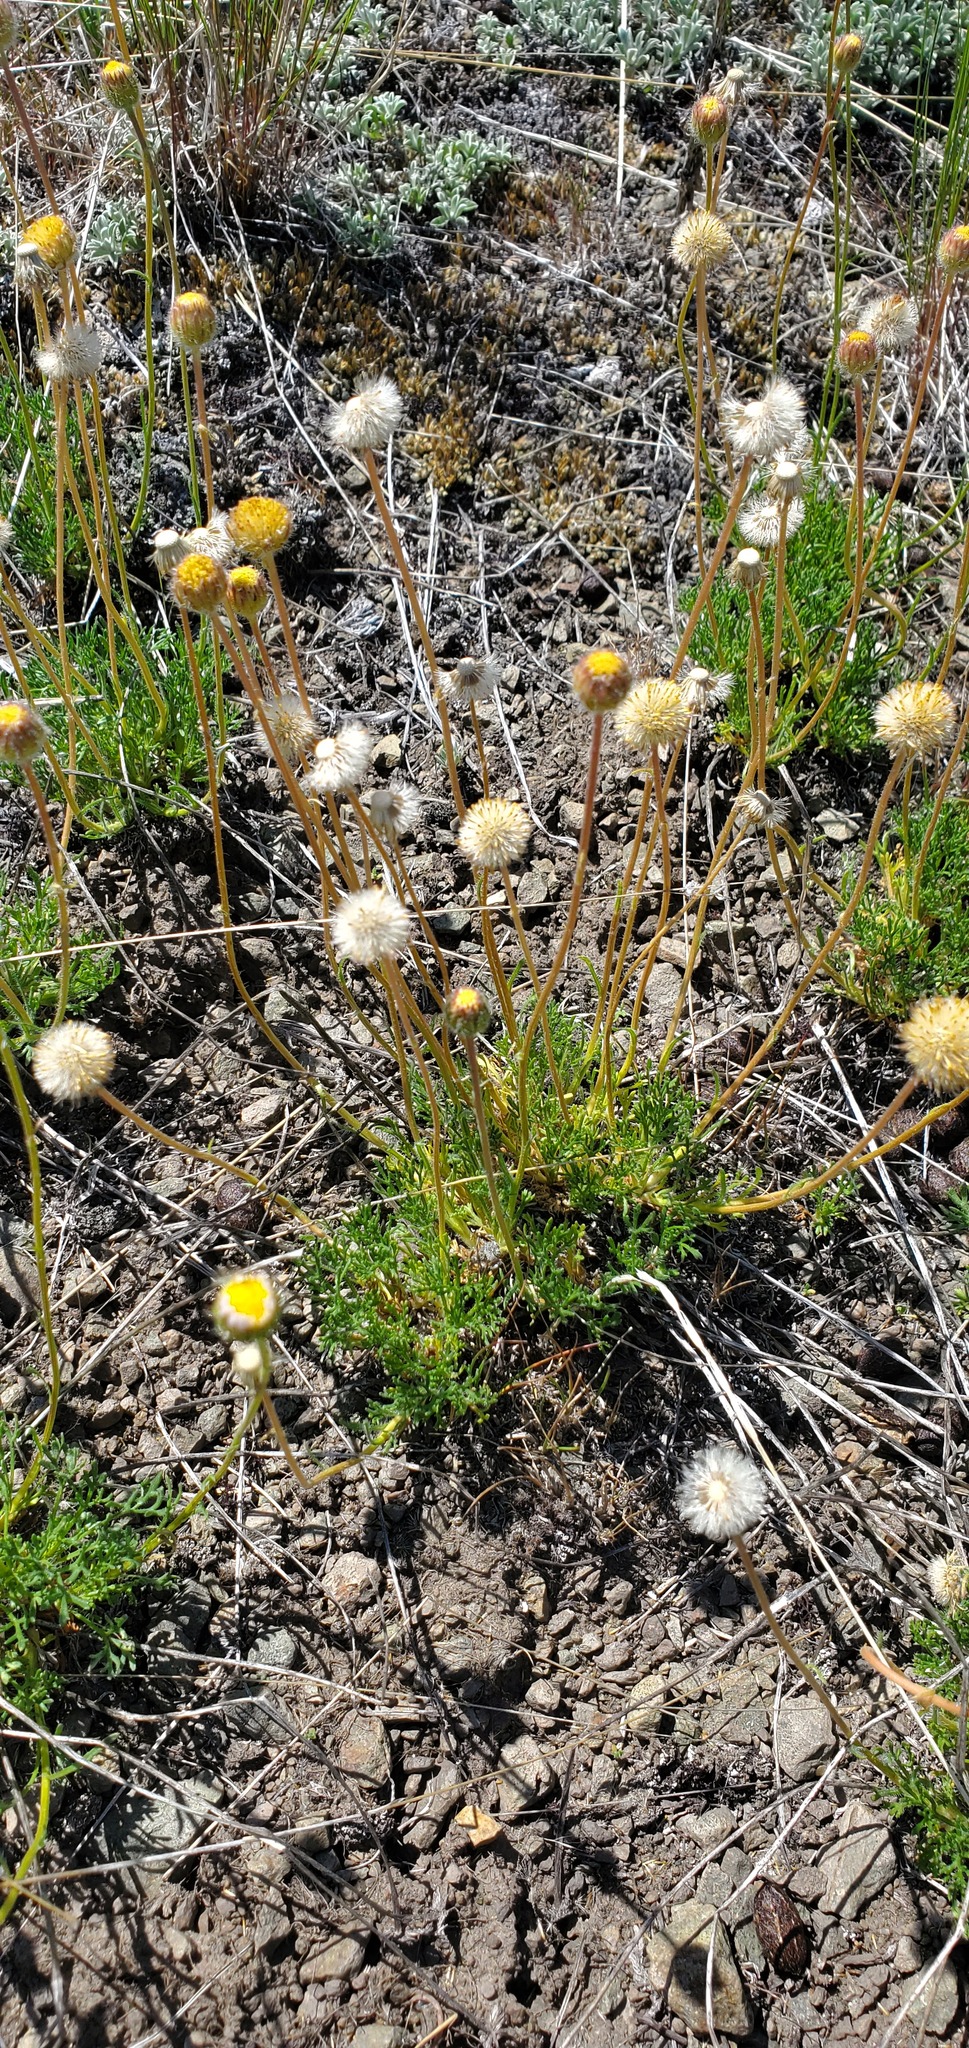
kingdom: Plantae
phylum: Tracheophyta
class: Magnoliopsida
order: Asterales
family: Asteraceae
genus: Erigeron
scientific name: Erigeron compositus
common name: Dwarf mountain fleabane
